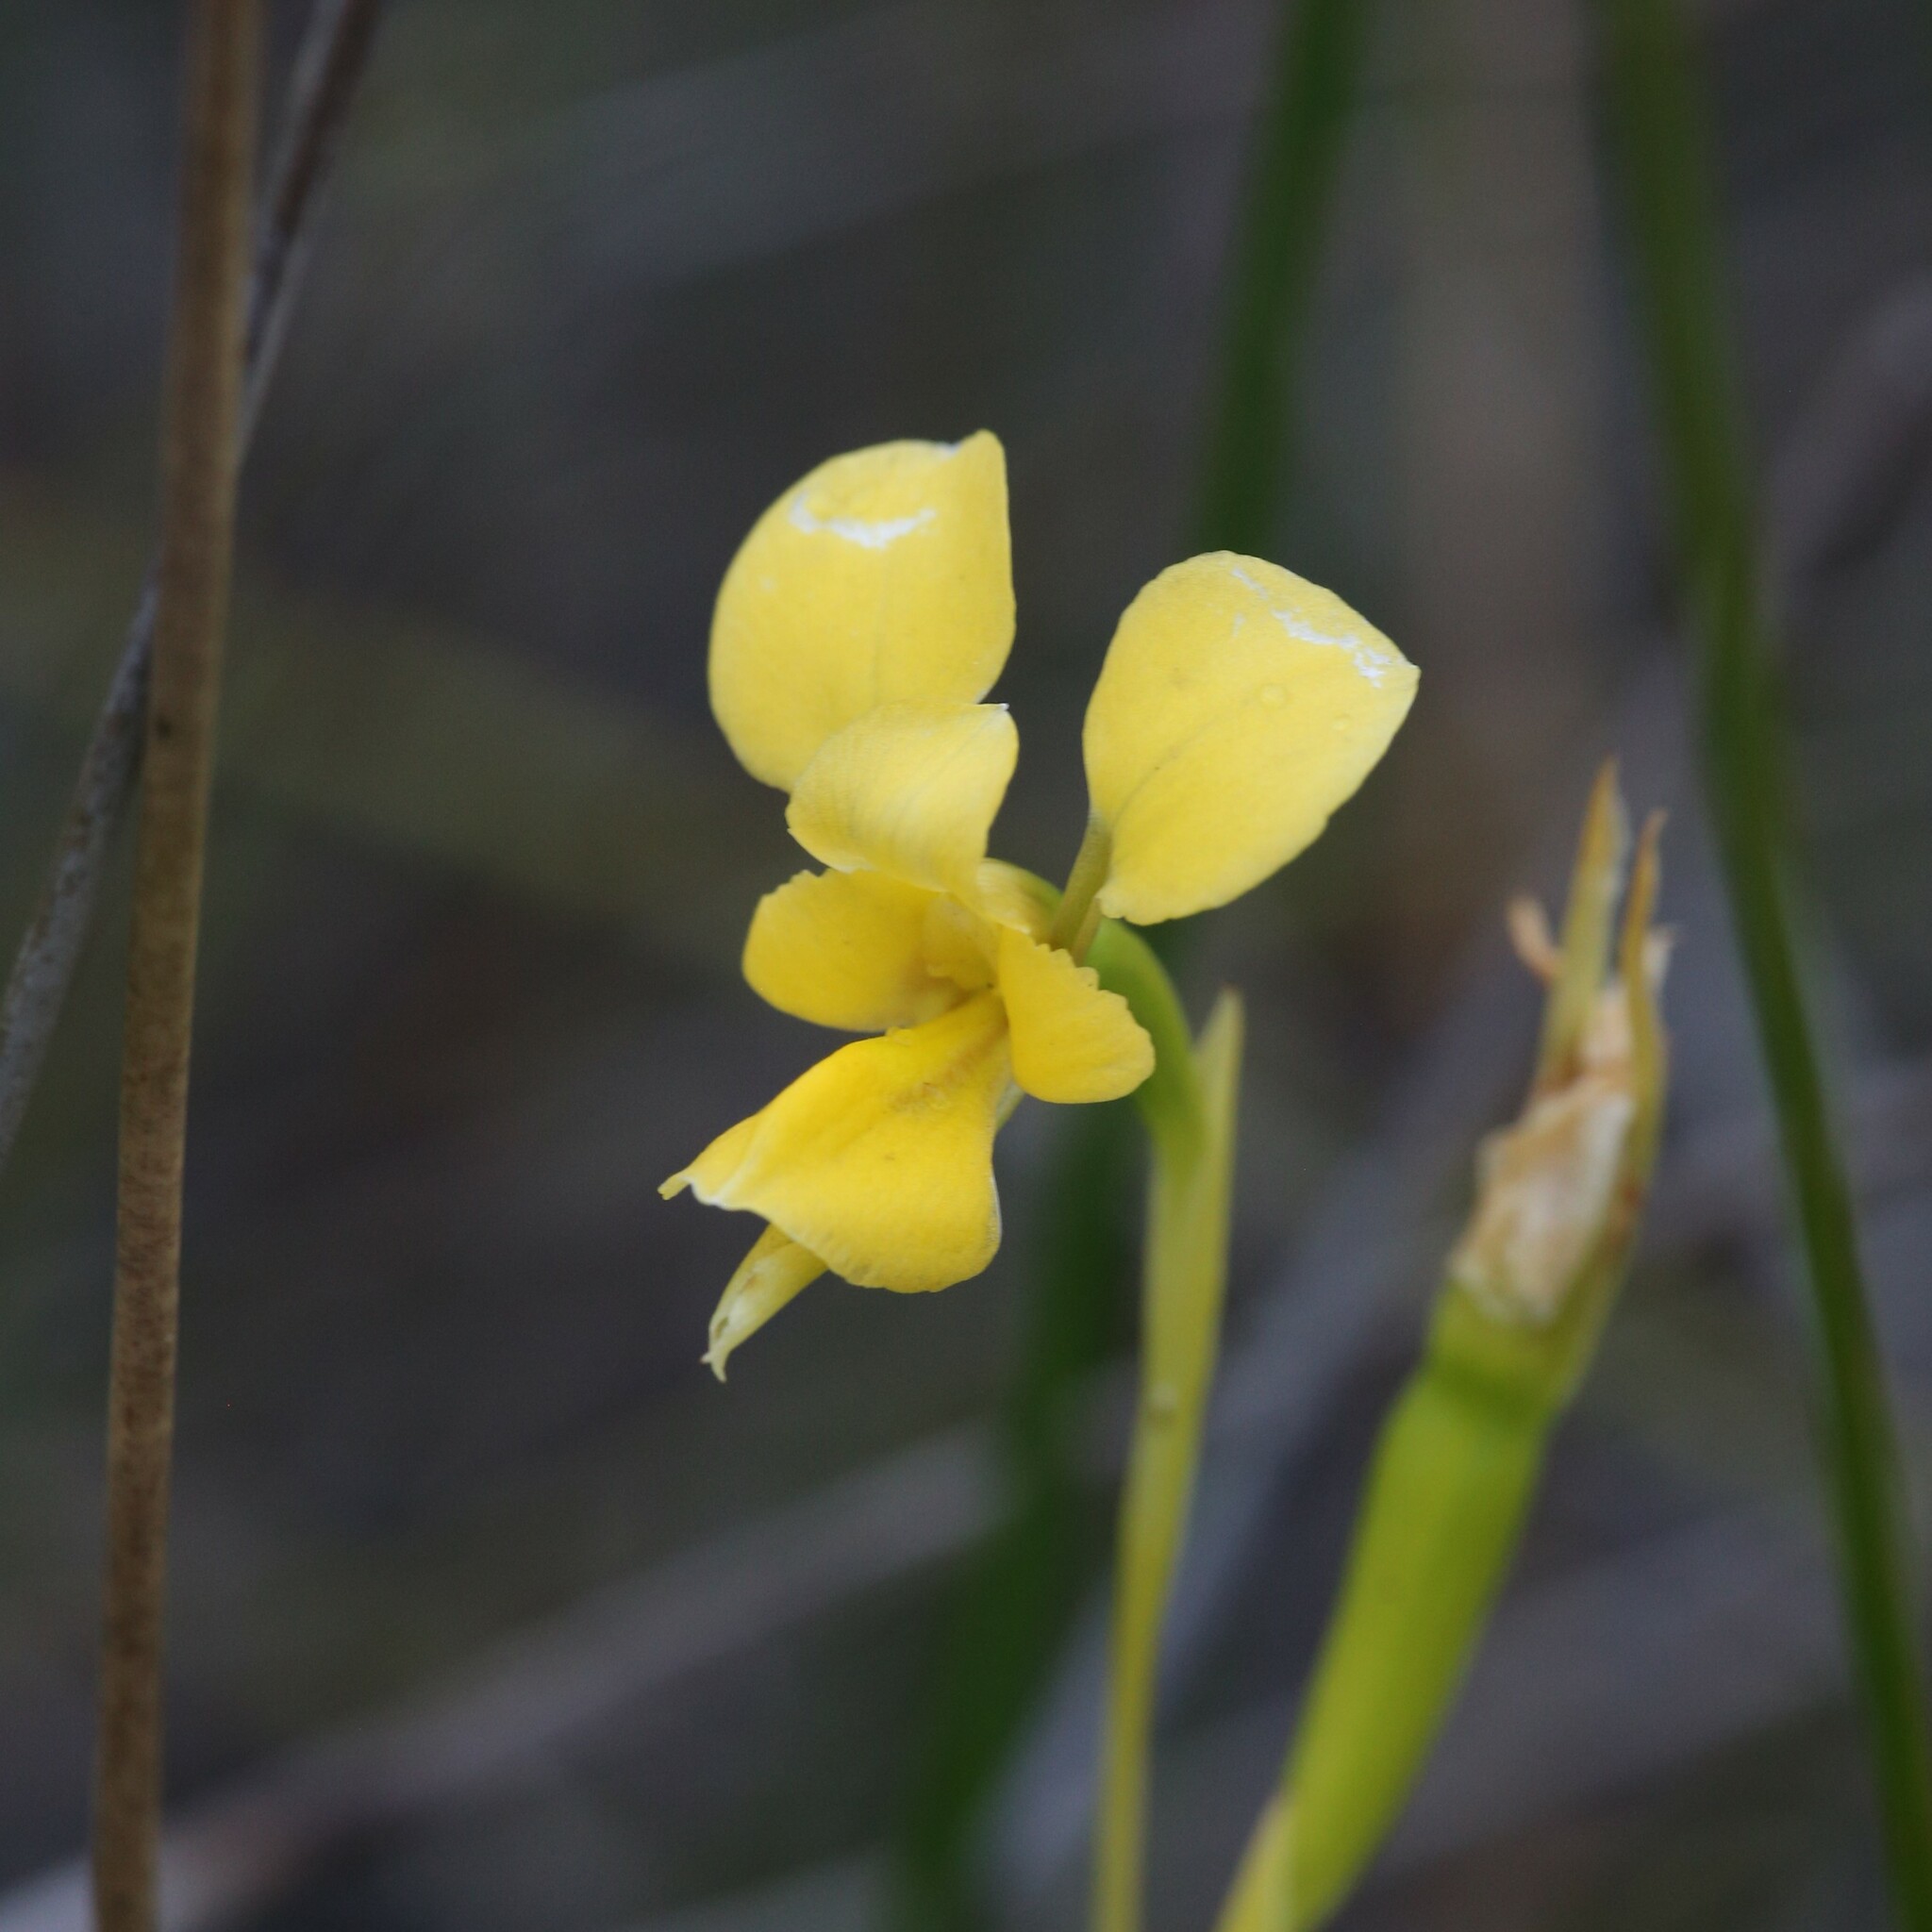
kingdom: Plantae
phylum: Tracheophyta
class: Liliopsida
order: Asparagales
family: Orchidaceae
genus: Diuris
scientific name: Diuris concinna
